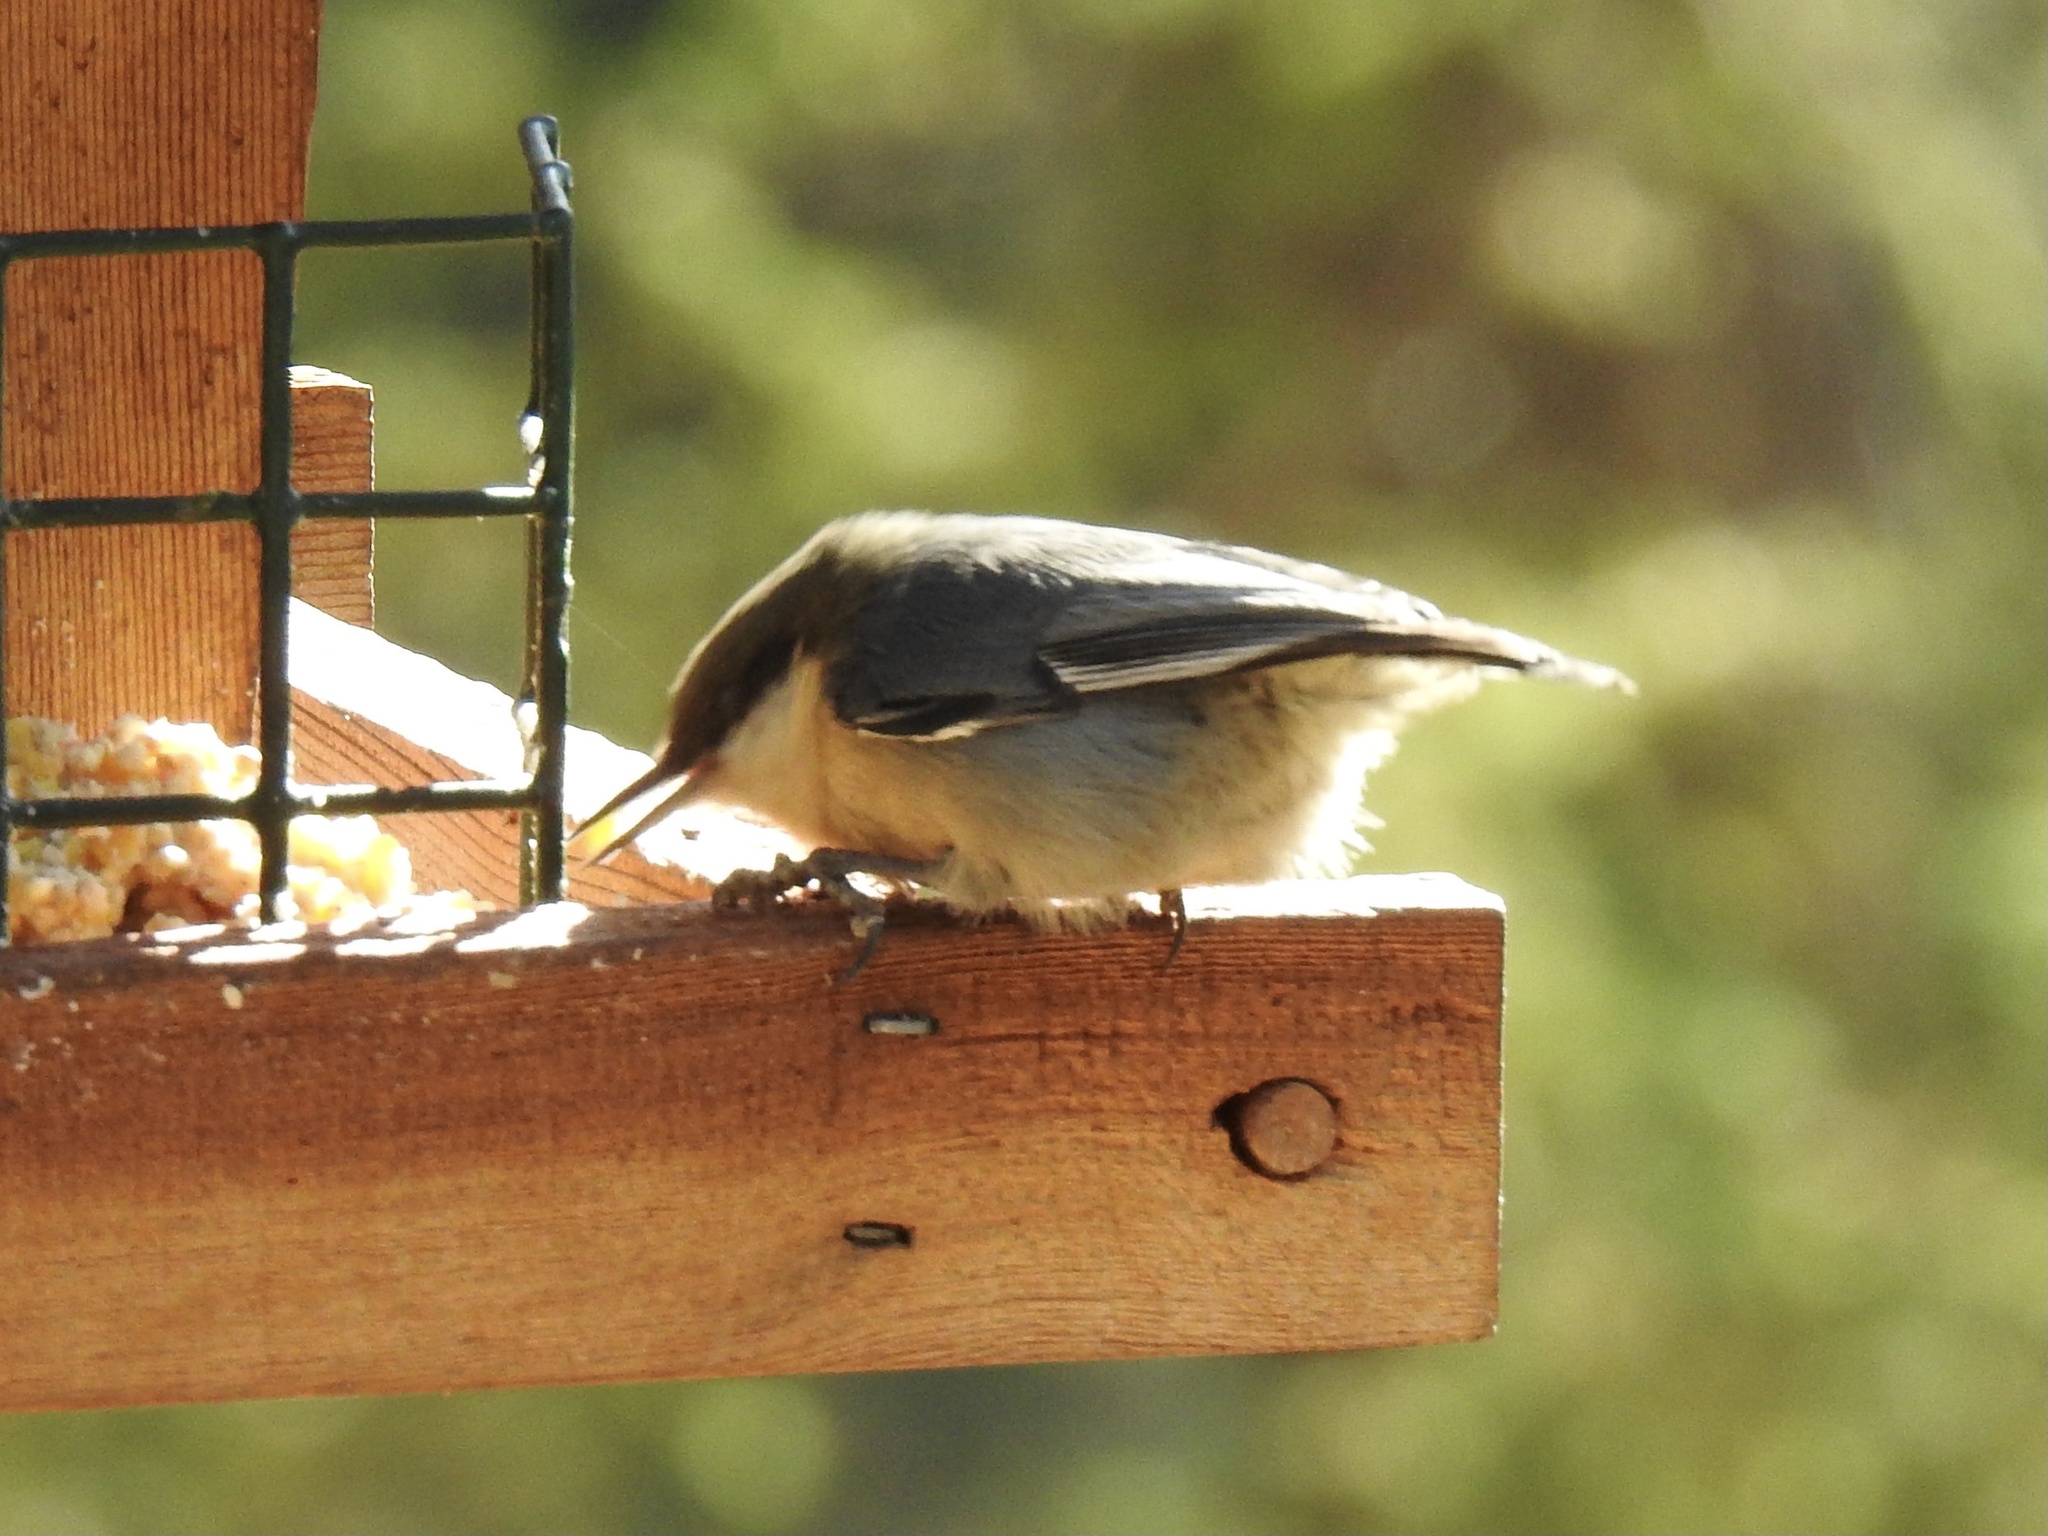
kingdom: Animalia
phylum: Chordata
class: Aves
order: Passeriformes
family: Sittidae
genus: Sitta
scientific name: Sitta pygmaea
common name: Pygmy nuthatch
